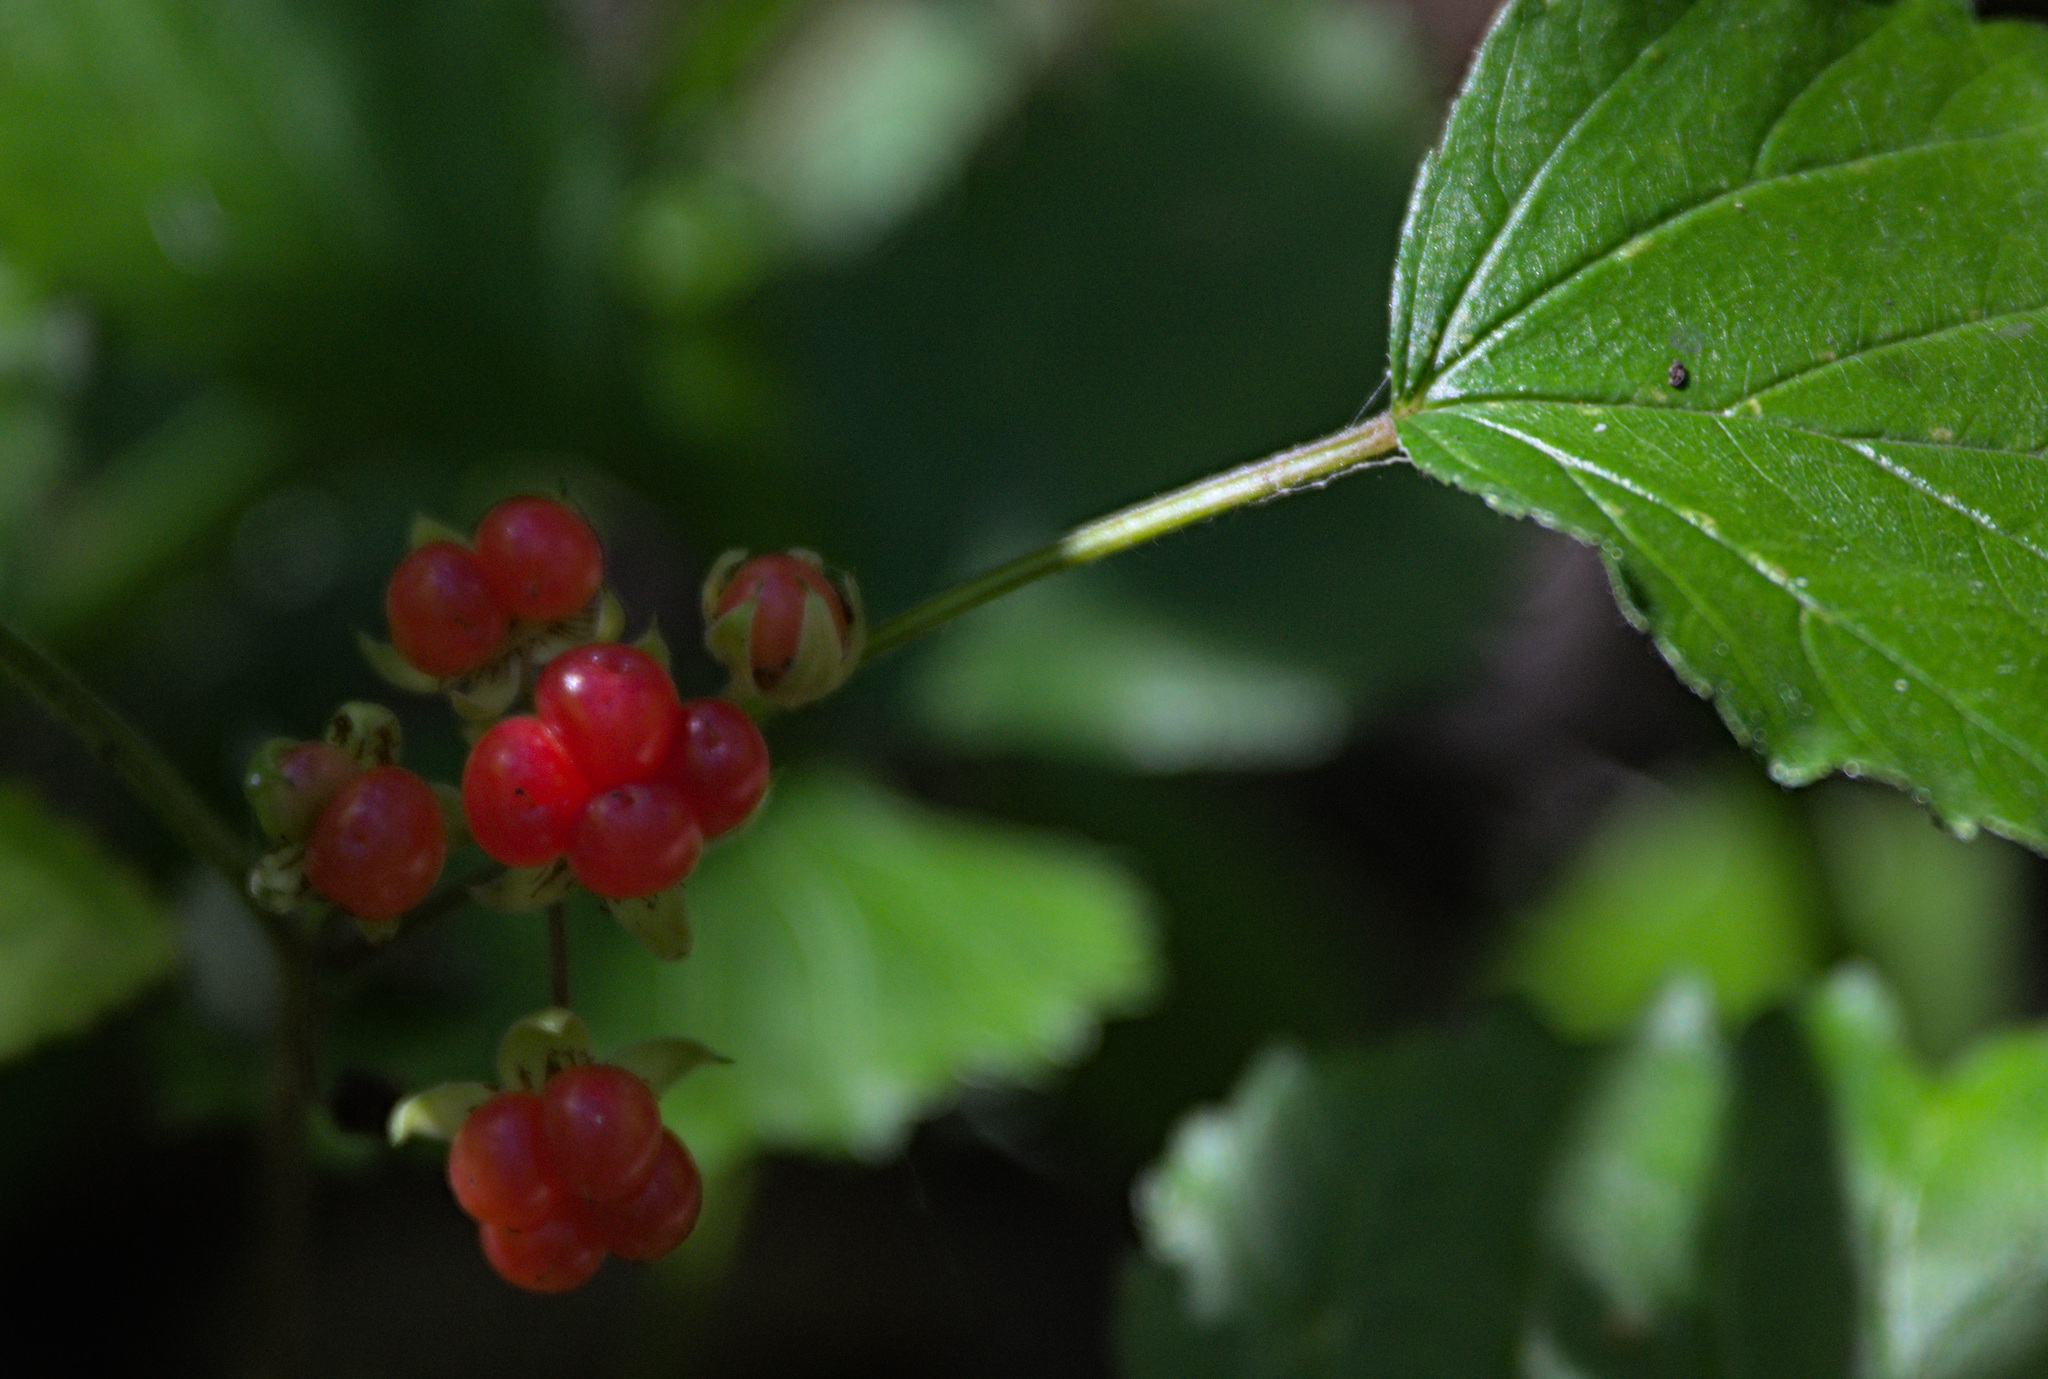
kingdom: Plantae
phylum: Tracheophyta
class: Magnoliopsida
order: Rosales
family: Rosaceae
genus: Rubus
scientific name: Rubus saxatilis
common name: Stone bramble
